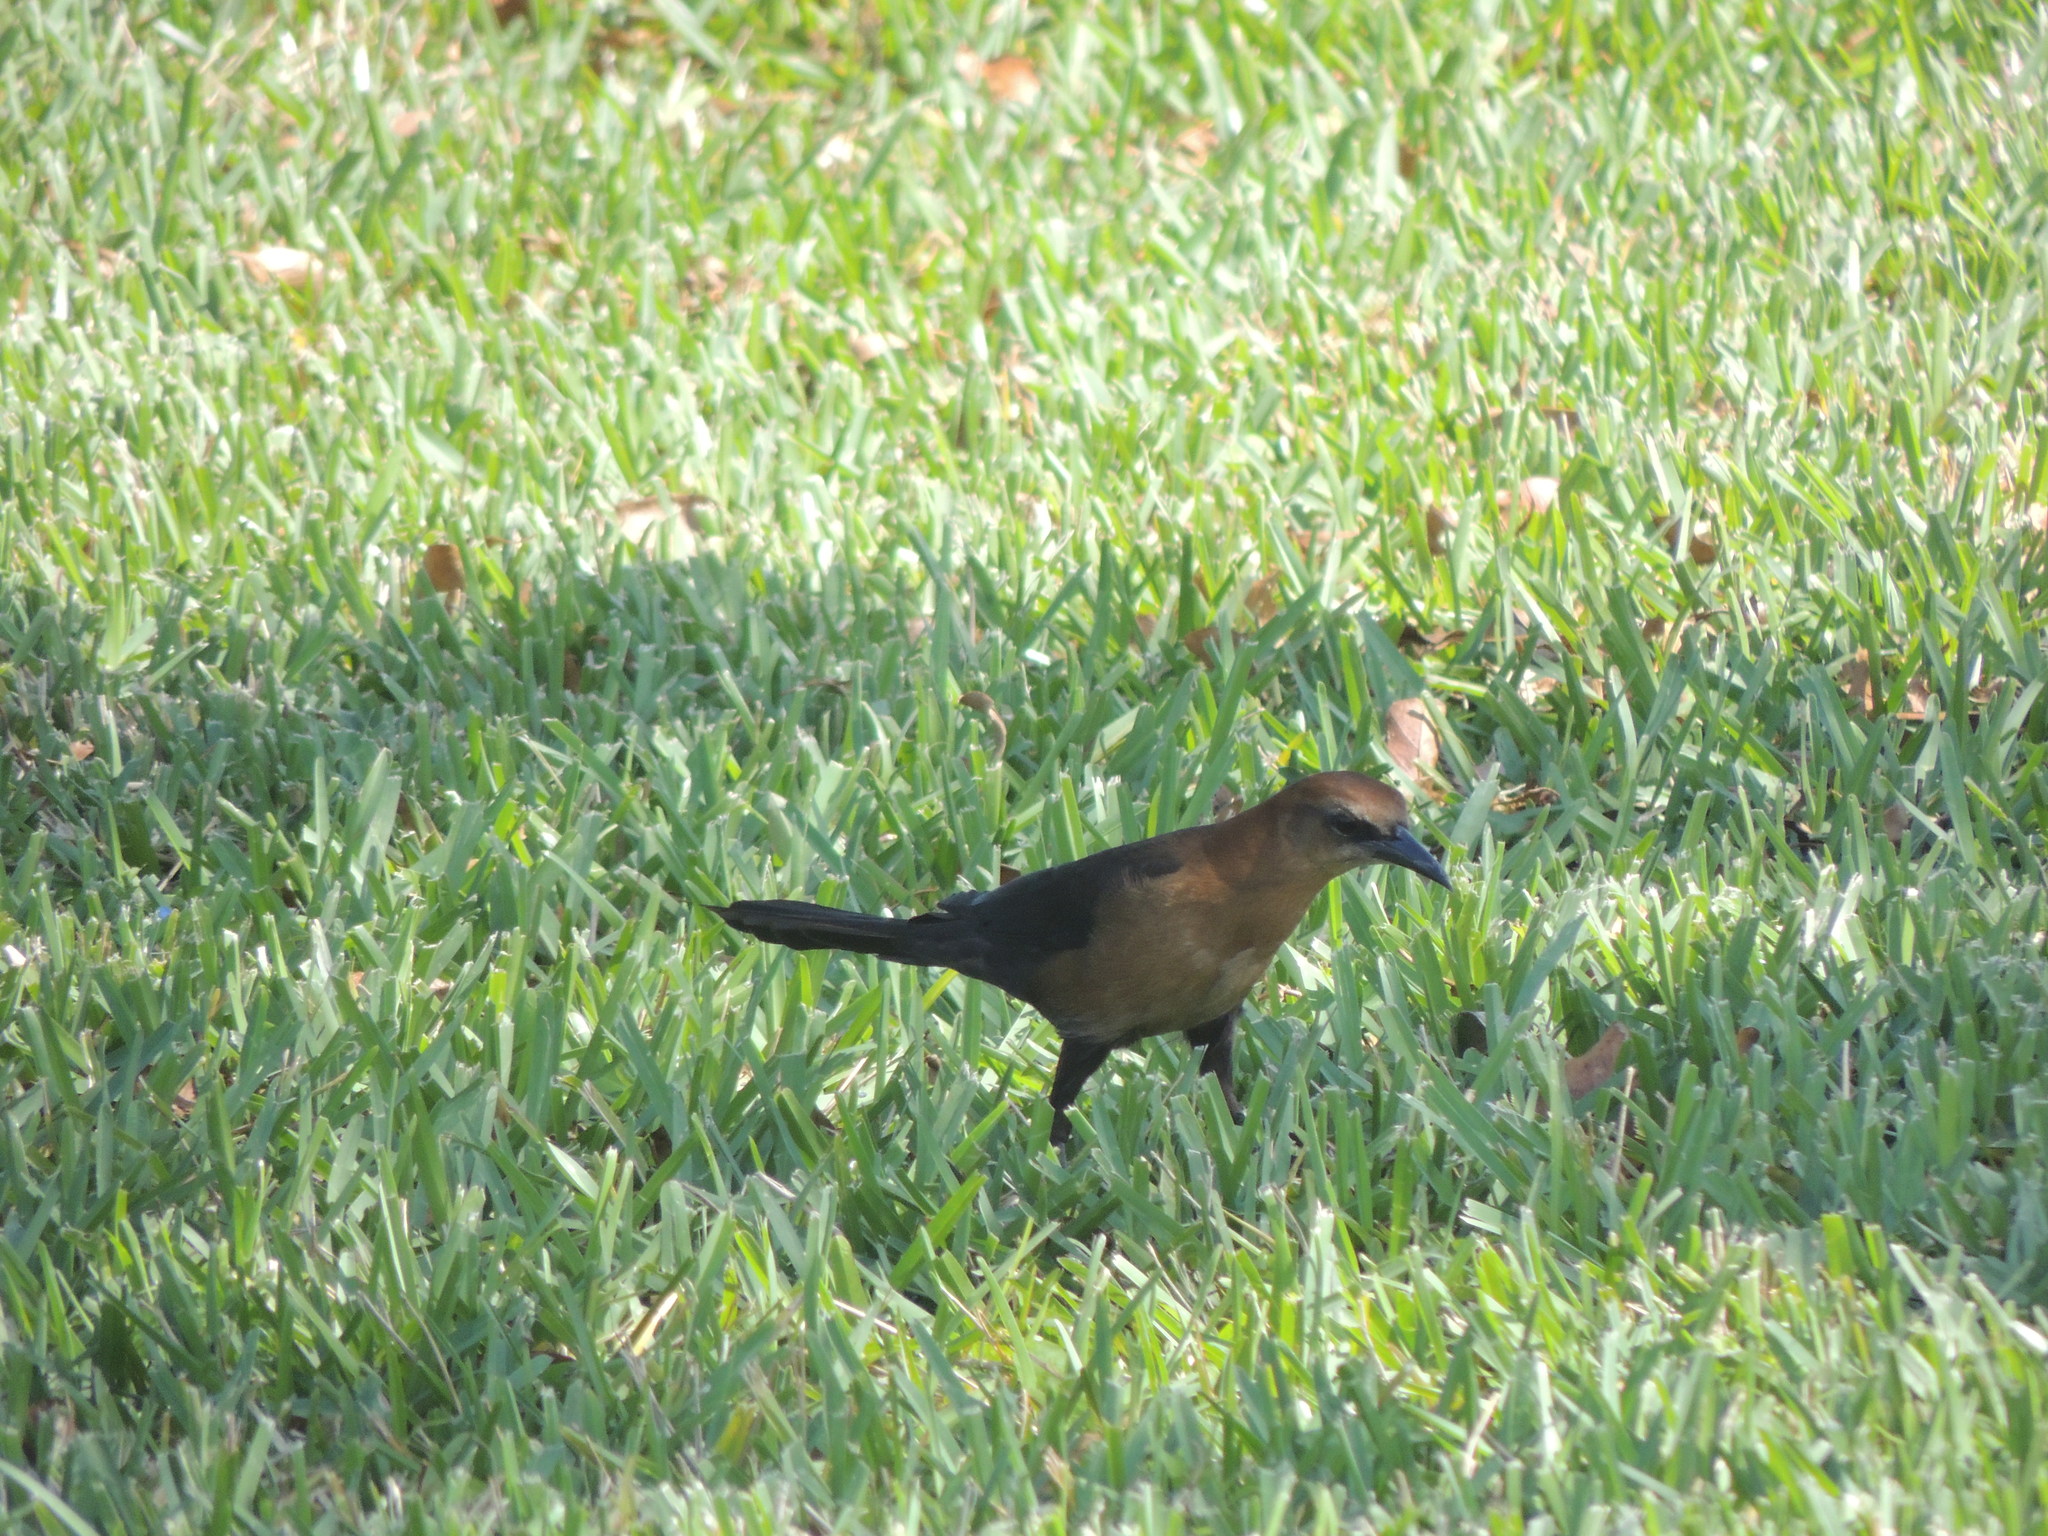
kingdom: Animalia
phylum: Chordata
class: Aves
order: Passeriformes
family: Icteridae
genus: Quiscalus
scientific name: Quiscalus major
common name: Boat-tailed grackle
